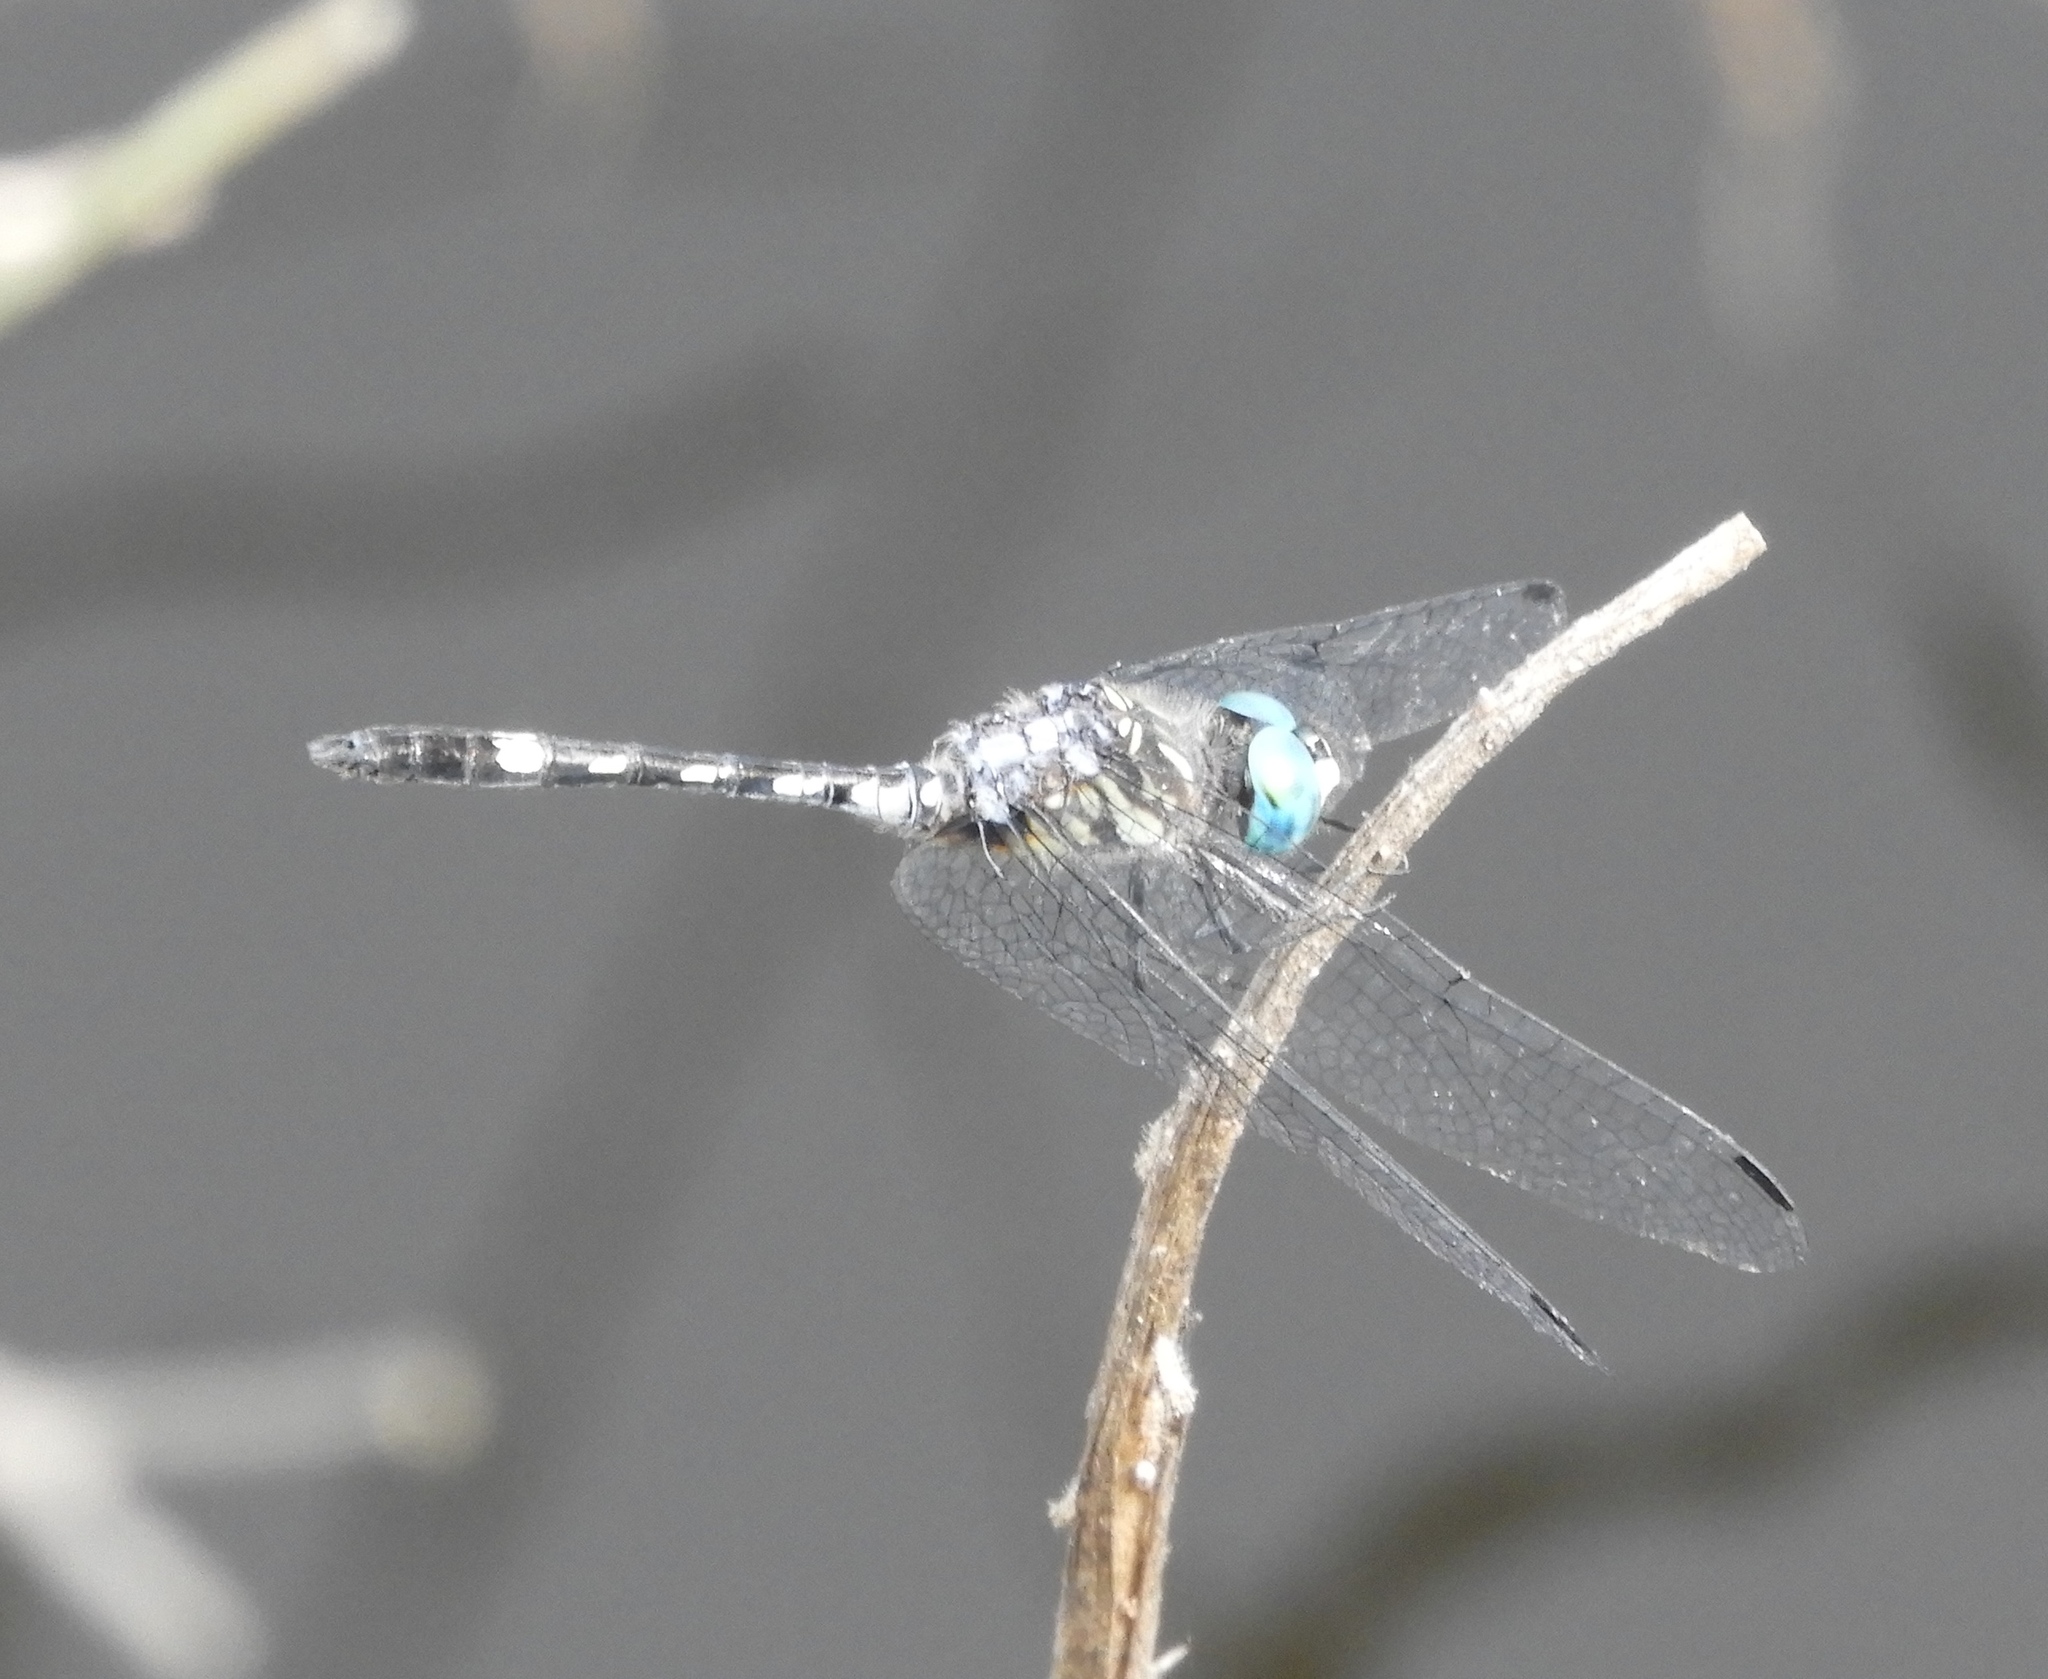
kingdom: Animalia
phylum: Arthropoda
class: Insecta
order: Odonata
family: Libellulidae
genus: Micrathyria
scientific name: Micrathyria hagenii
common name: Thornbush dasher
